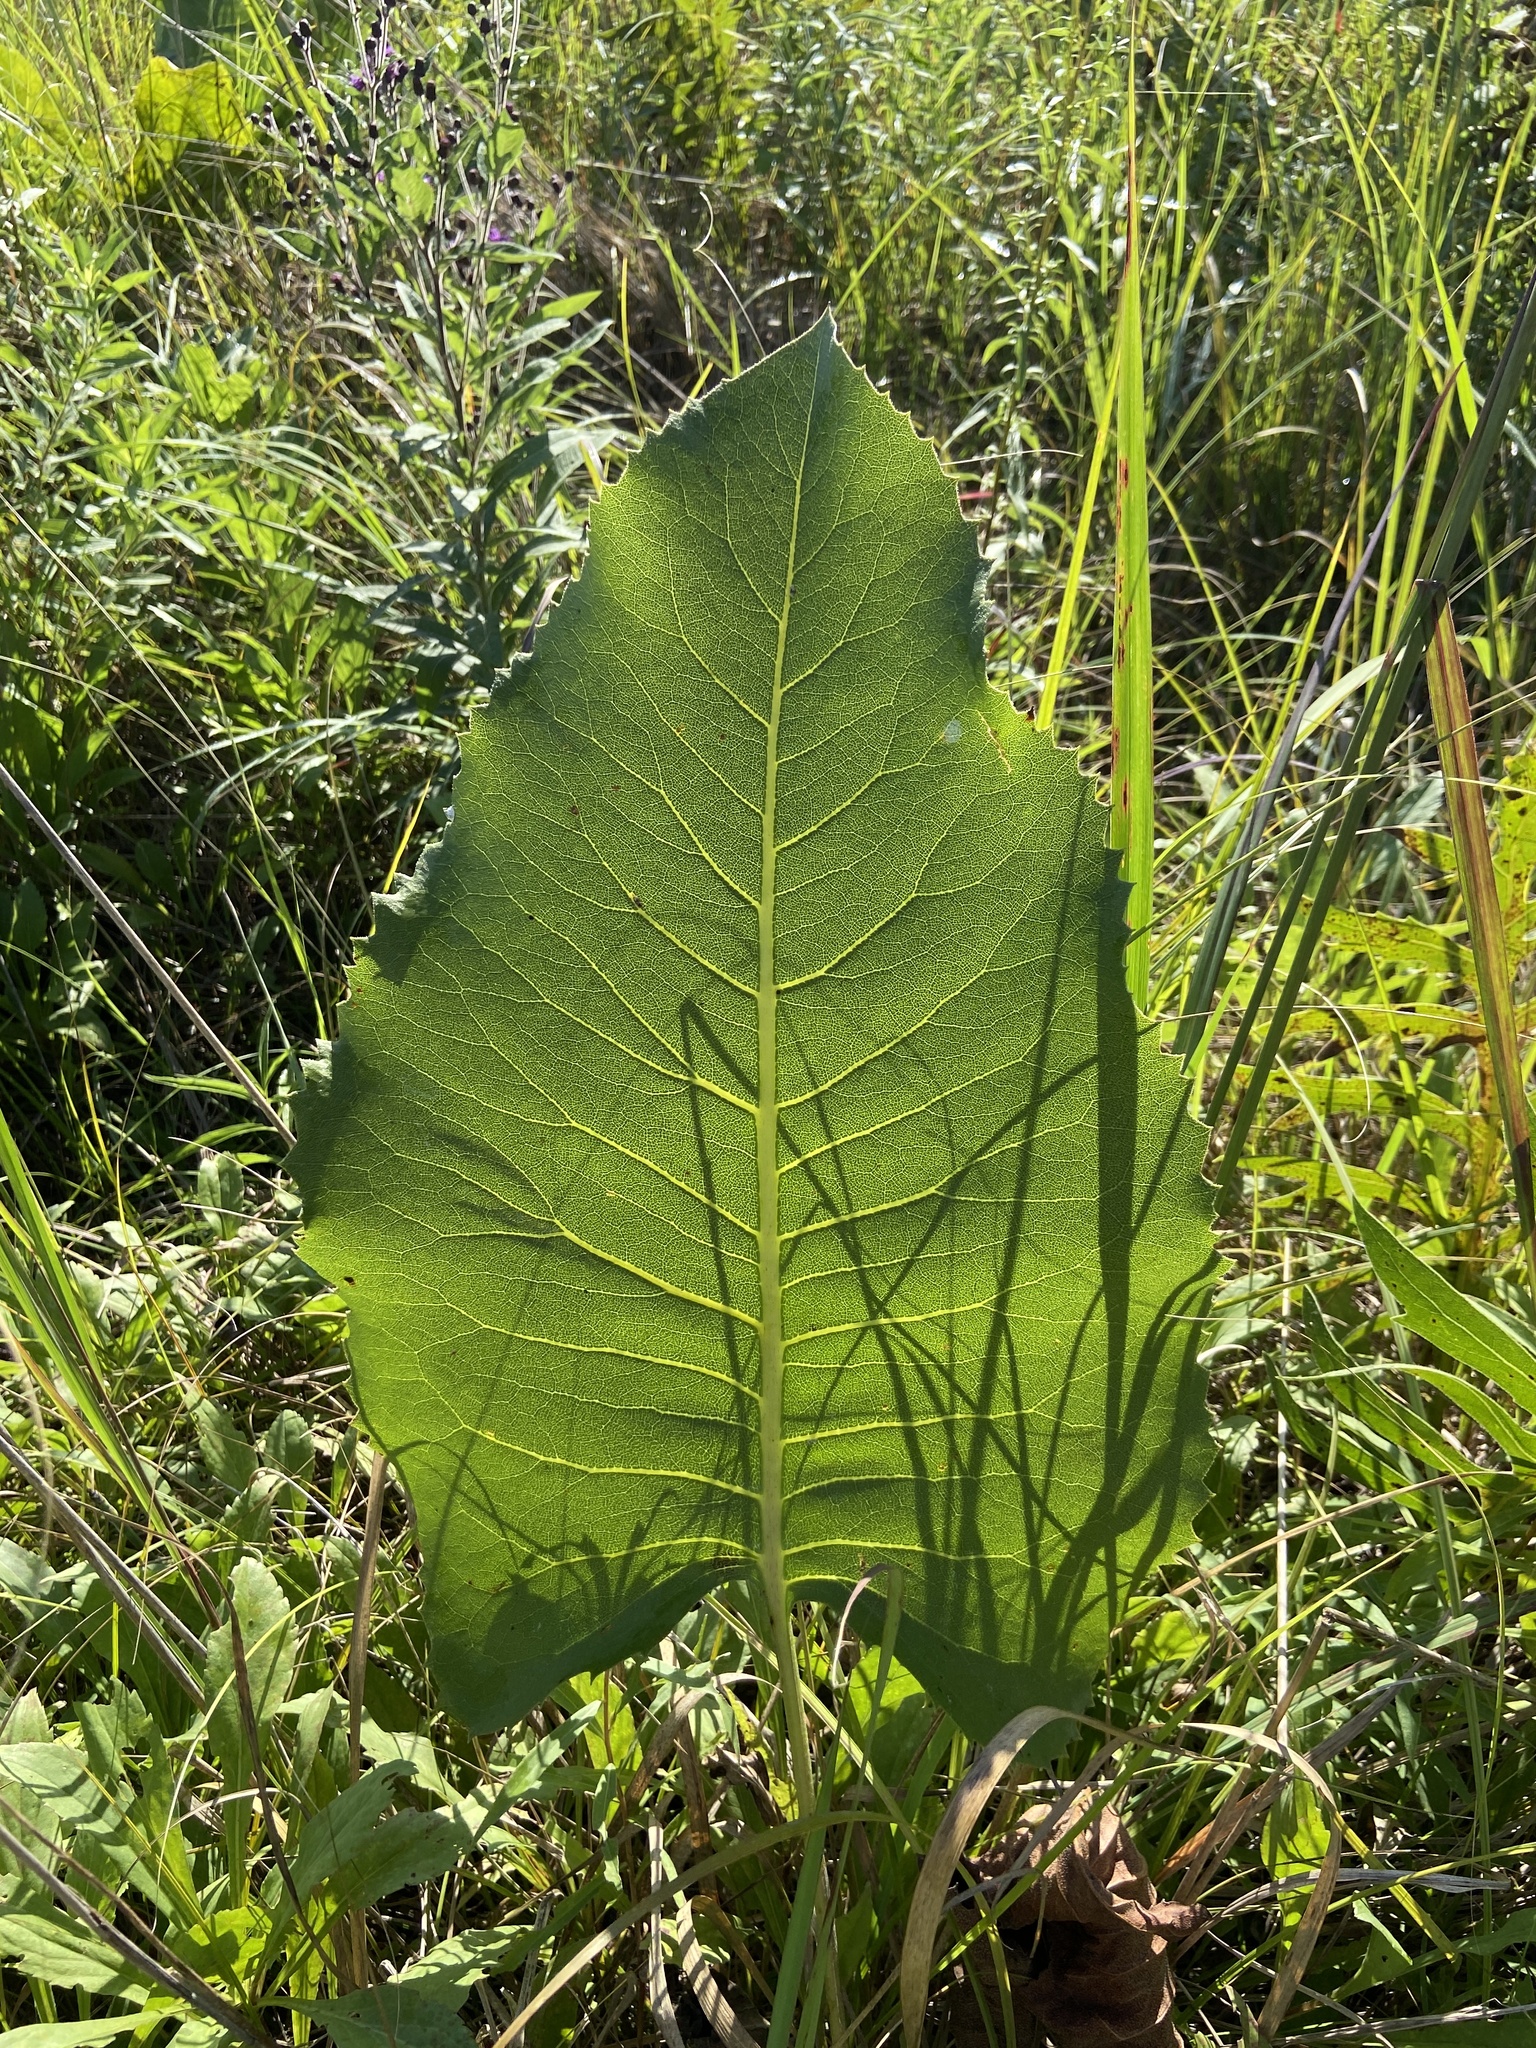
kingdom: Plantae
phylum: Tracheophyta
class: Magnoliopsida
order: Asterales
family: Asteraceae
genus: Silphium
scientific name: Silphium terebinthinaceum
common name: Basal-leaf rosinweed
